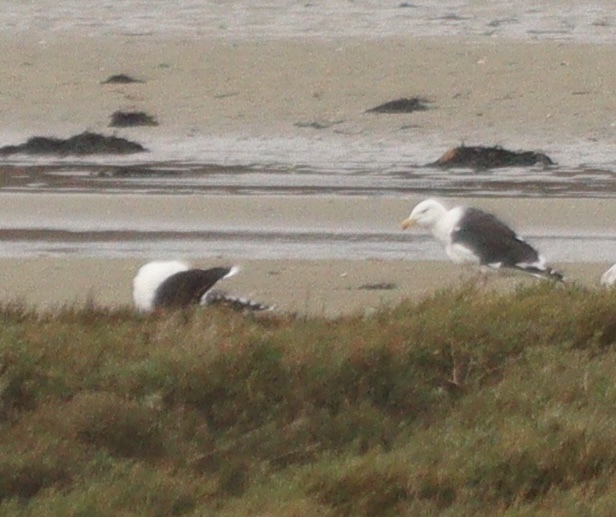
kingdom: Animalia
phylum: Chordata
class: Aves
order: Charadriiformes
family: Laridae
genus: Larus
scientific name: Larus marinus
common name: Great black-backed gull
